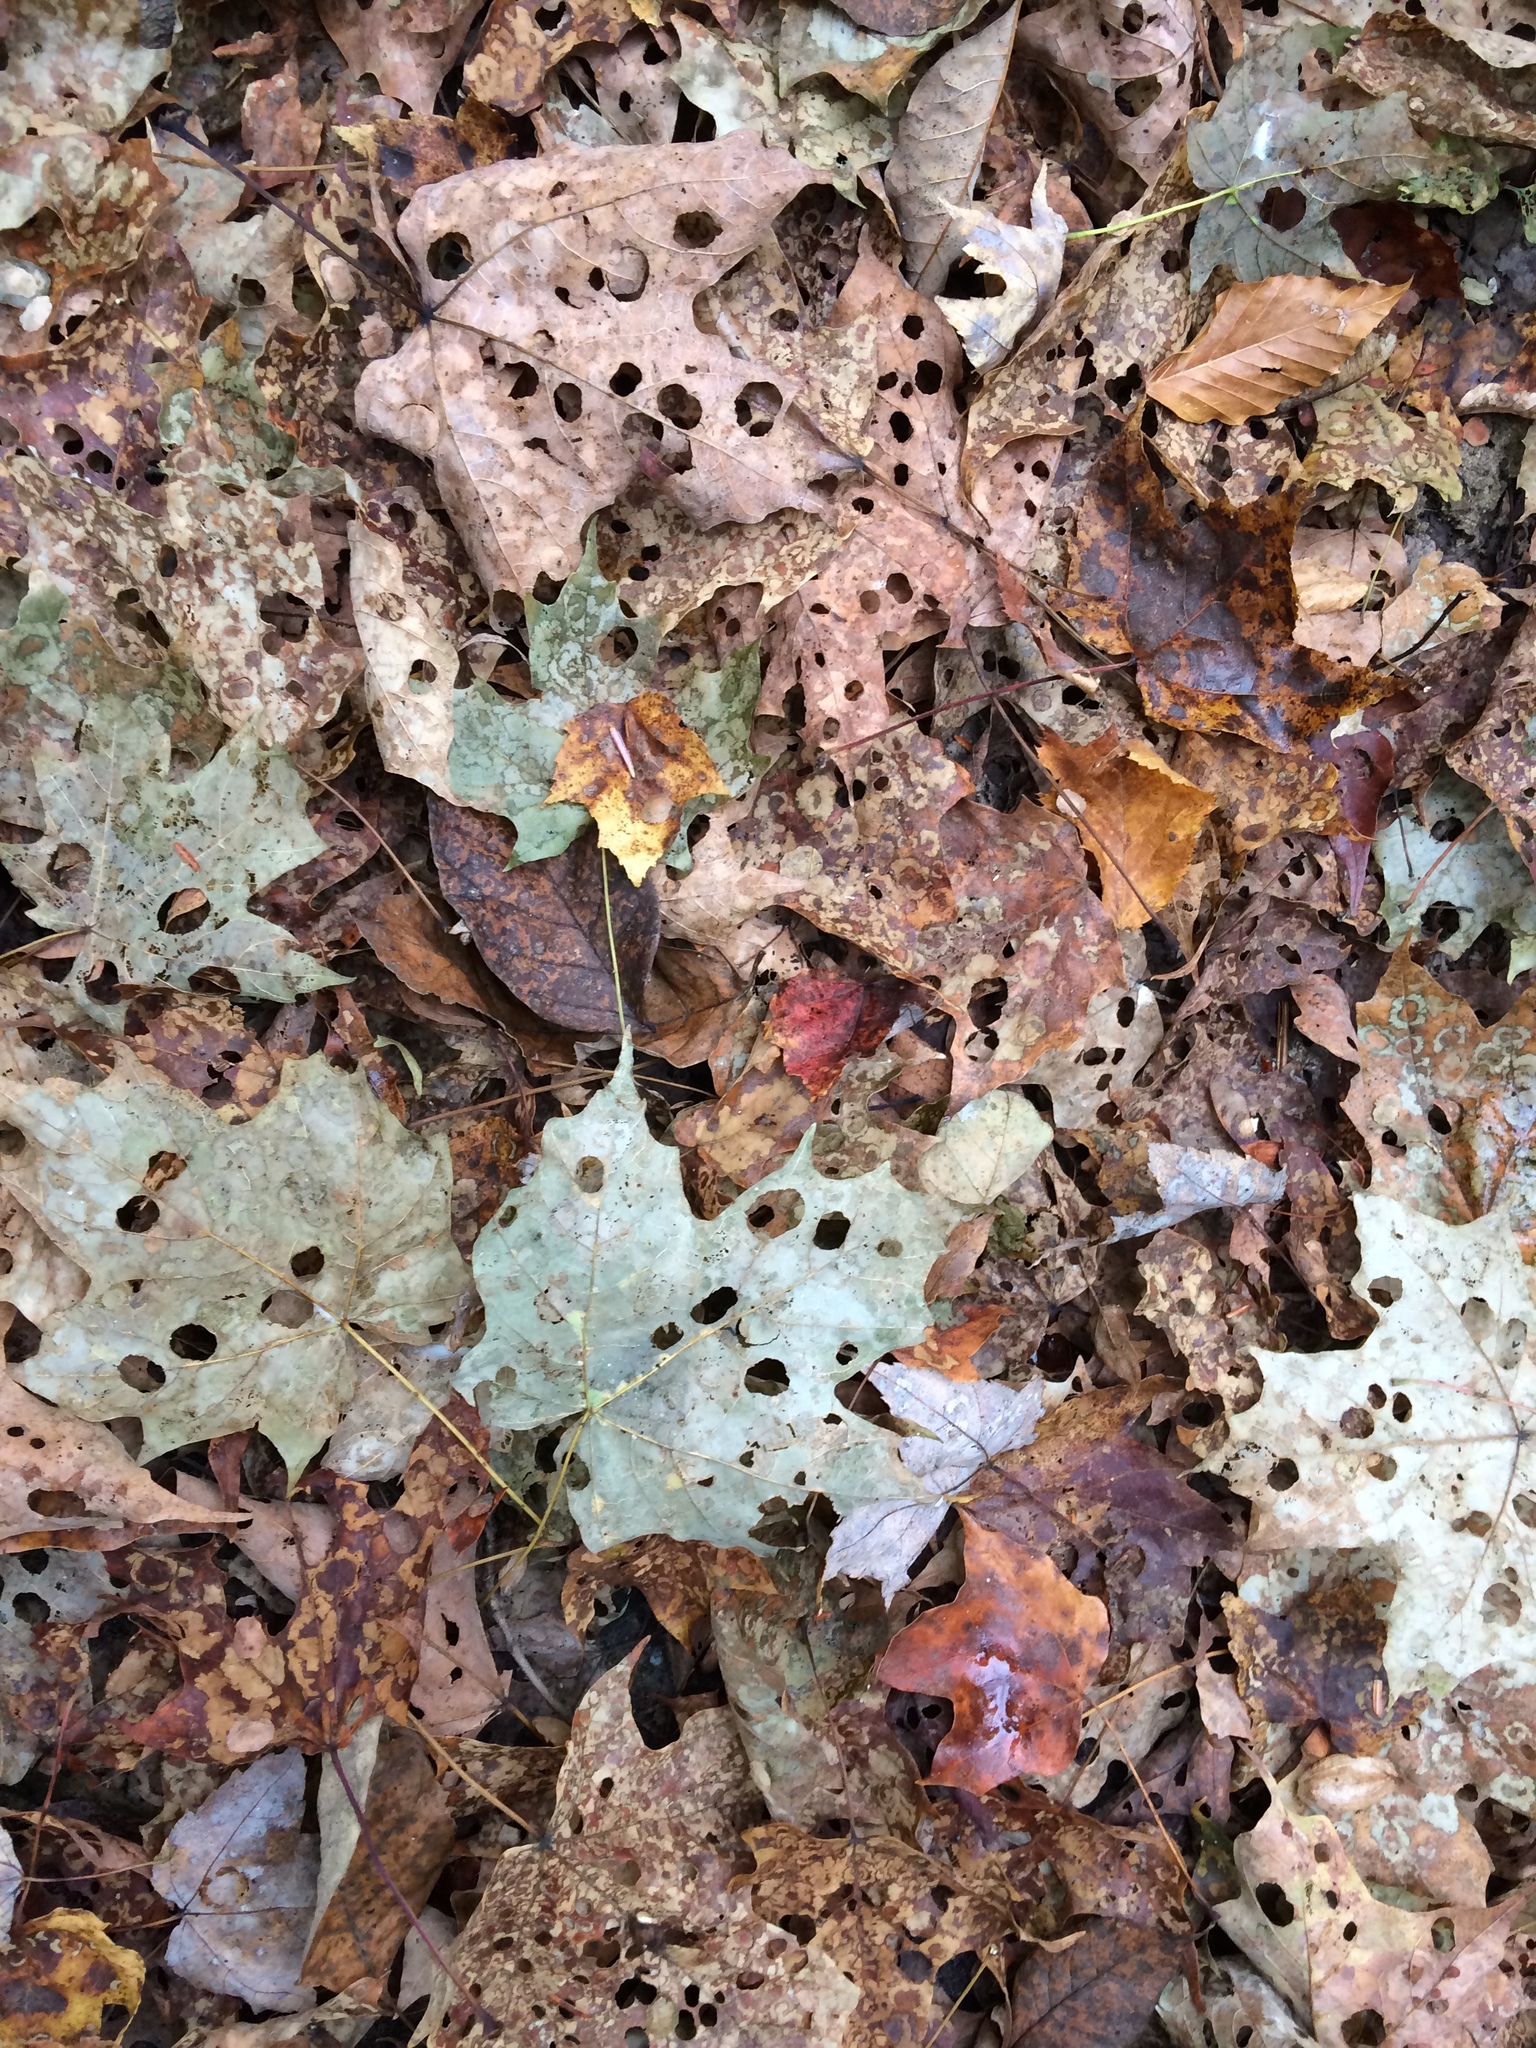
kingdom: Animalia
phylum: Arthropoda
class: Insecta
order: Lepidoptera
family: Incurvariidae
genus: Paraclemensia
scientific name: Paraclemensia acerifoliella
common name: Maple leafcutter
